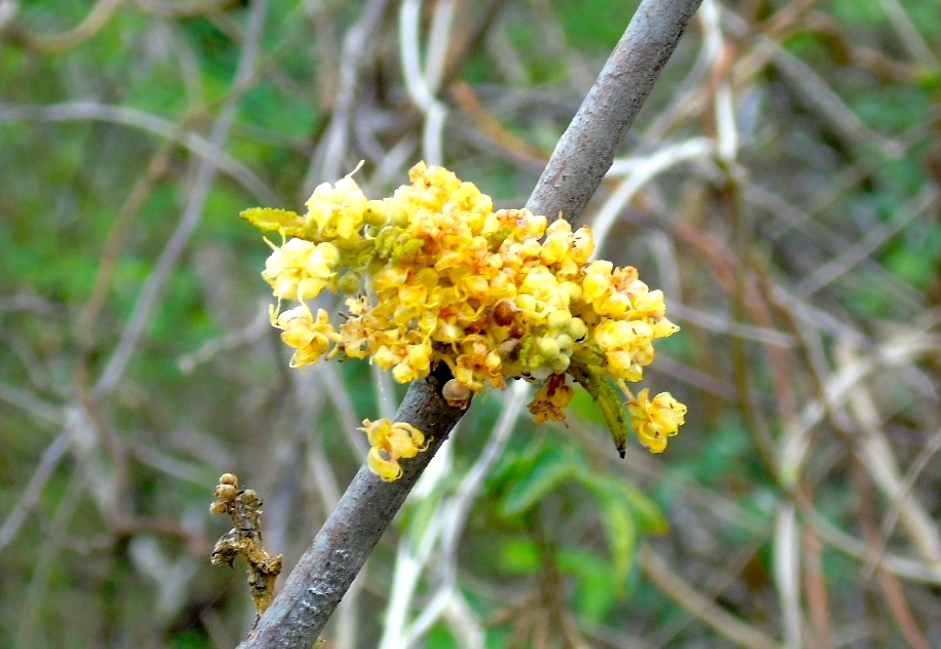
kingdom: Plantae
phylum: Tracheophyta
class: Magnoliopsida
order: Malvales
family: Malvaceae
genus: Guazuma
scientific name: Guazuma ulmifolia
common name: Bastard-cedar
